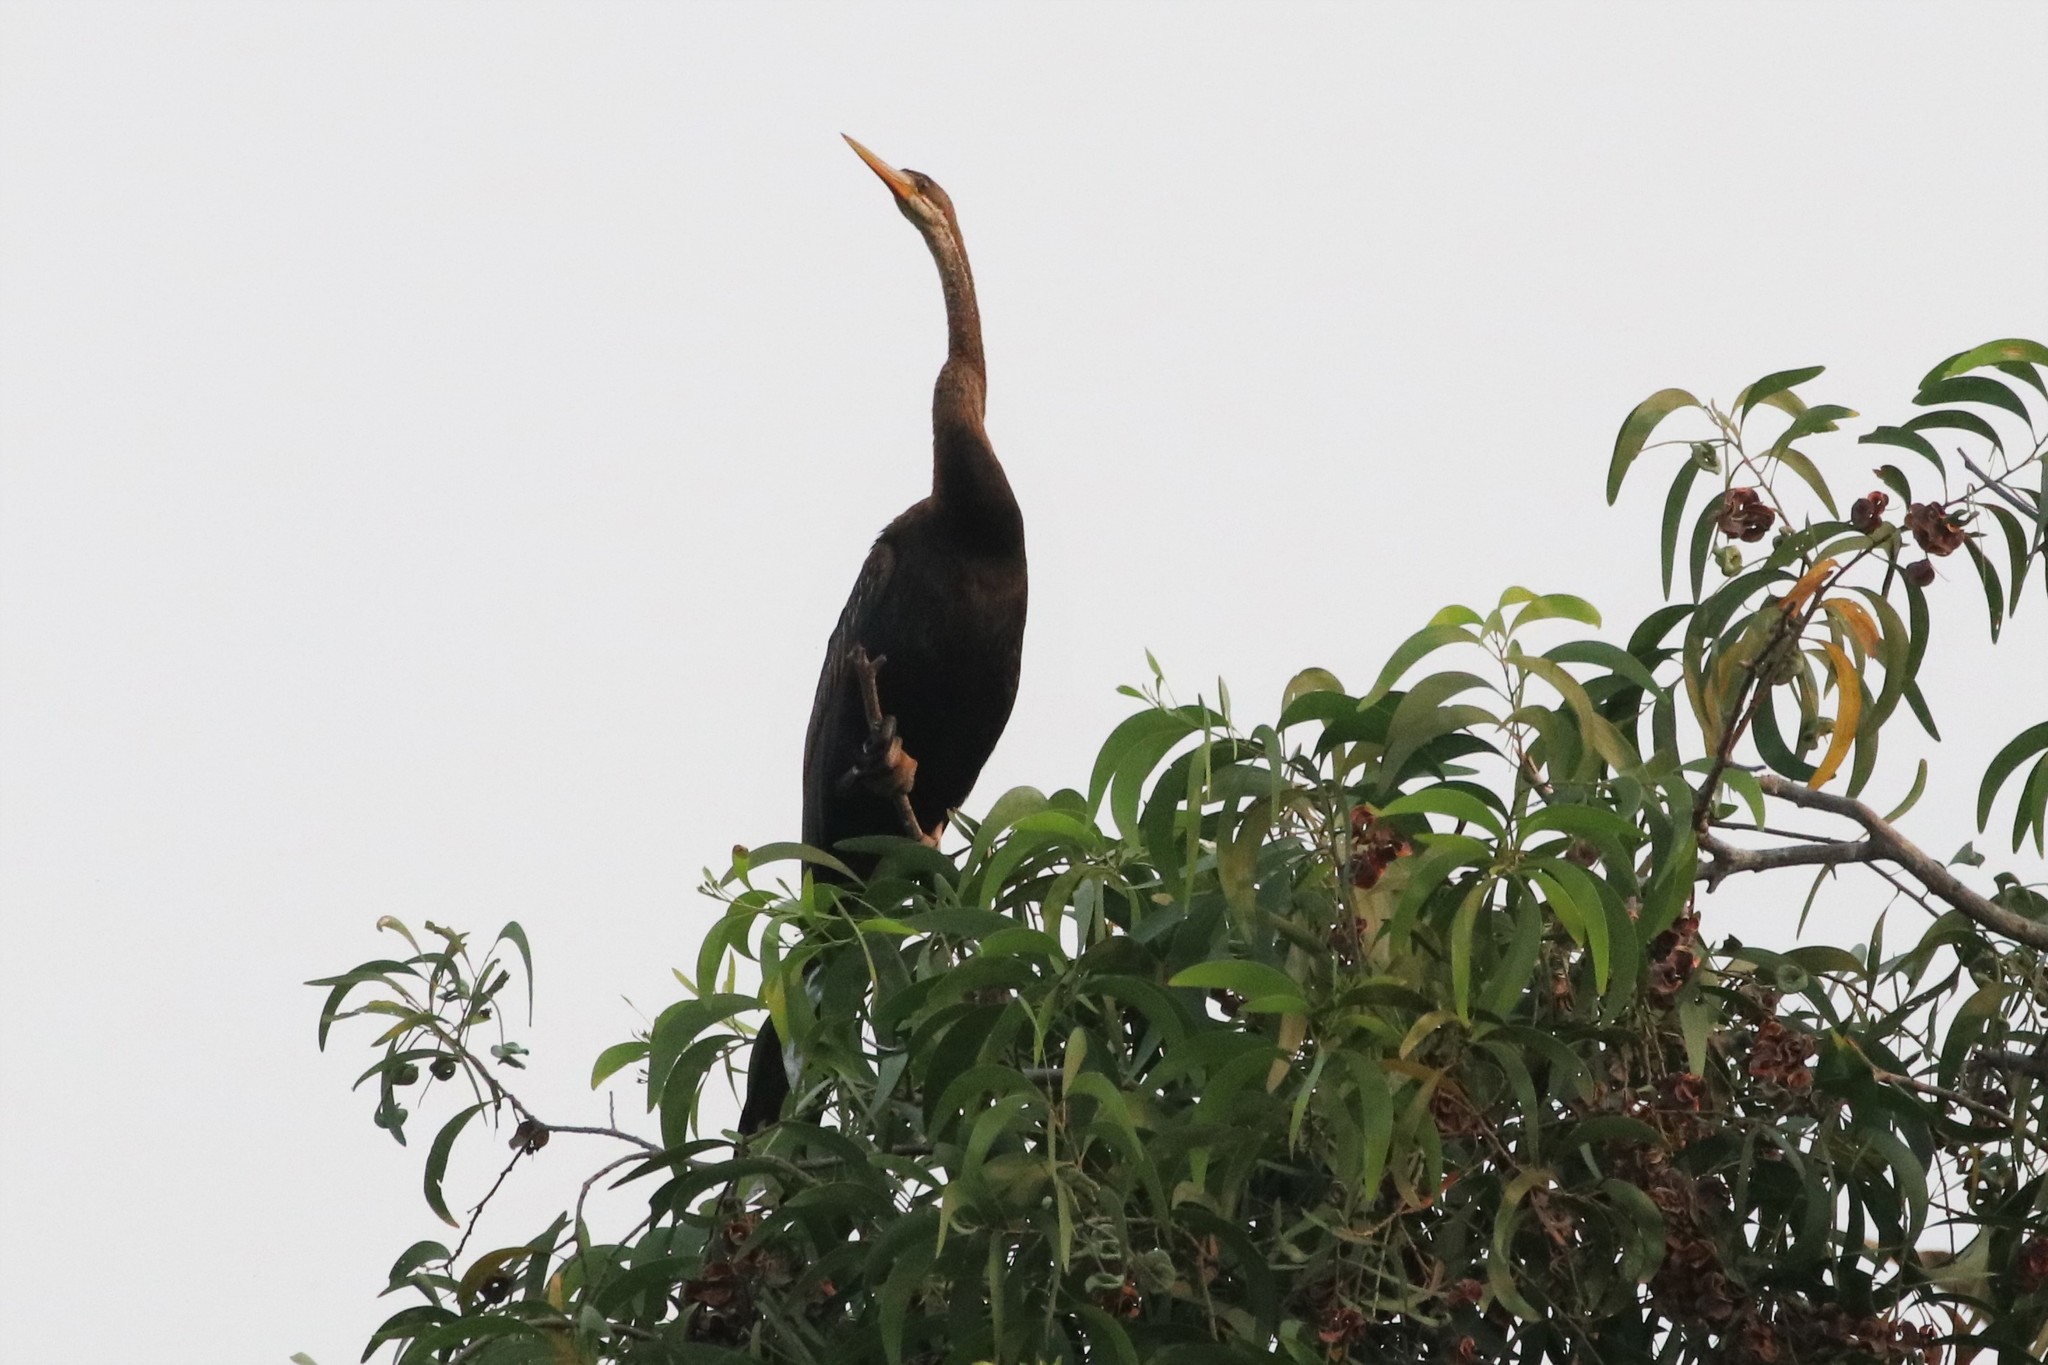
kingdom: Animalia
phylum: Chordata
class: Aves
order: Suliformes
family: Anhingidae
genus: Anhinga
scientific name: Anhinga melanogaster
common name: Oriental darter
